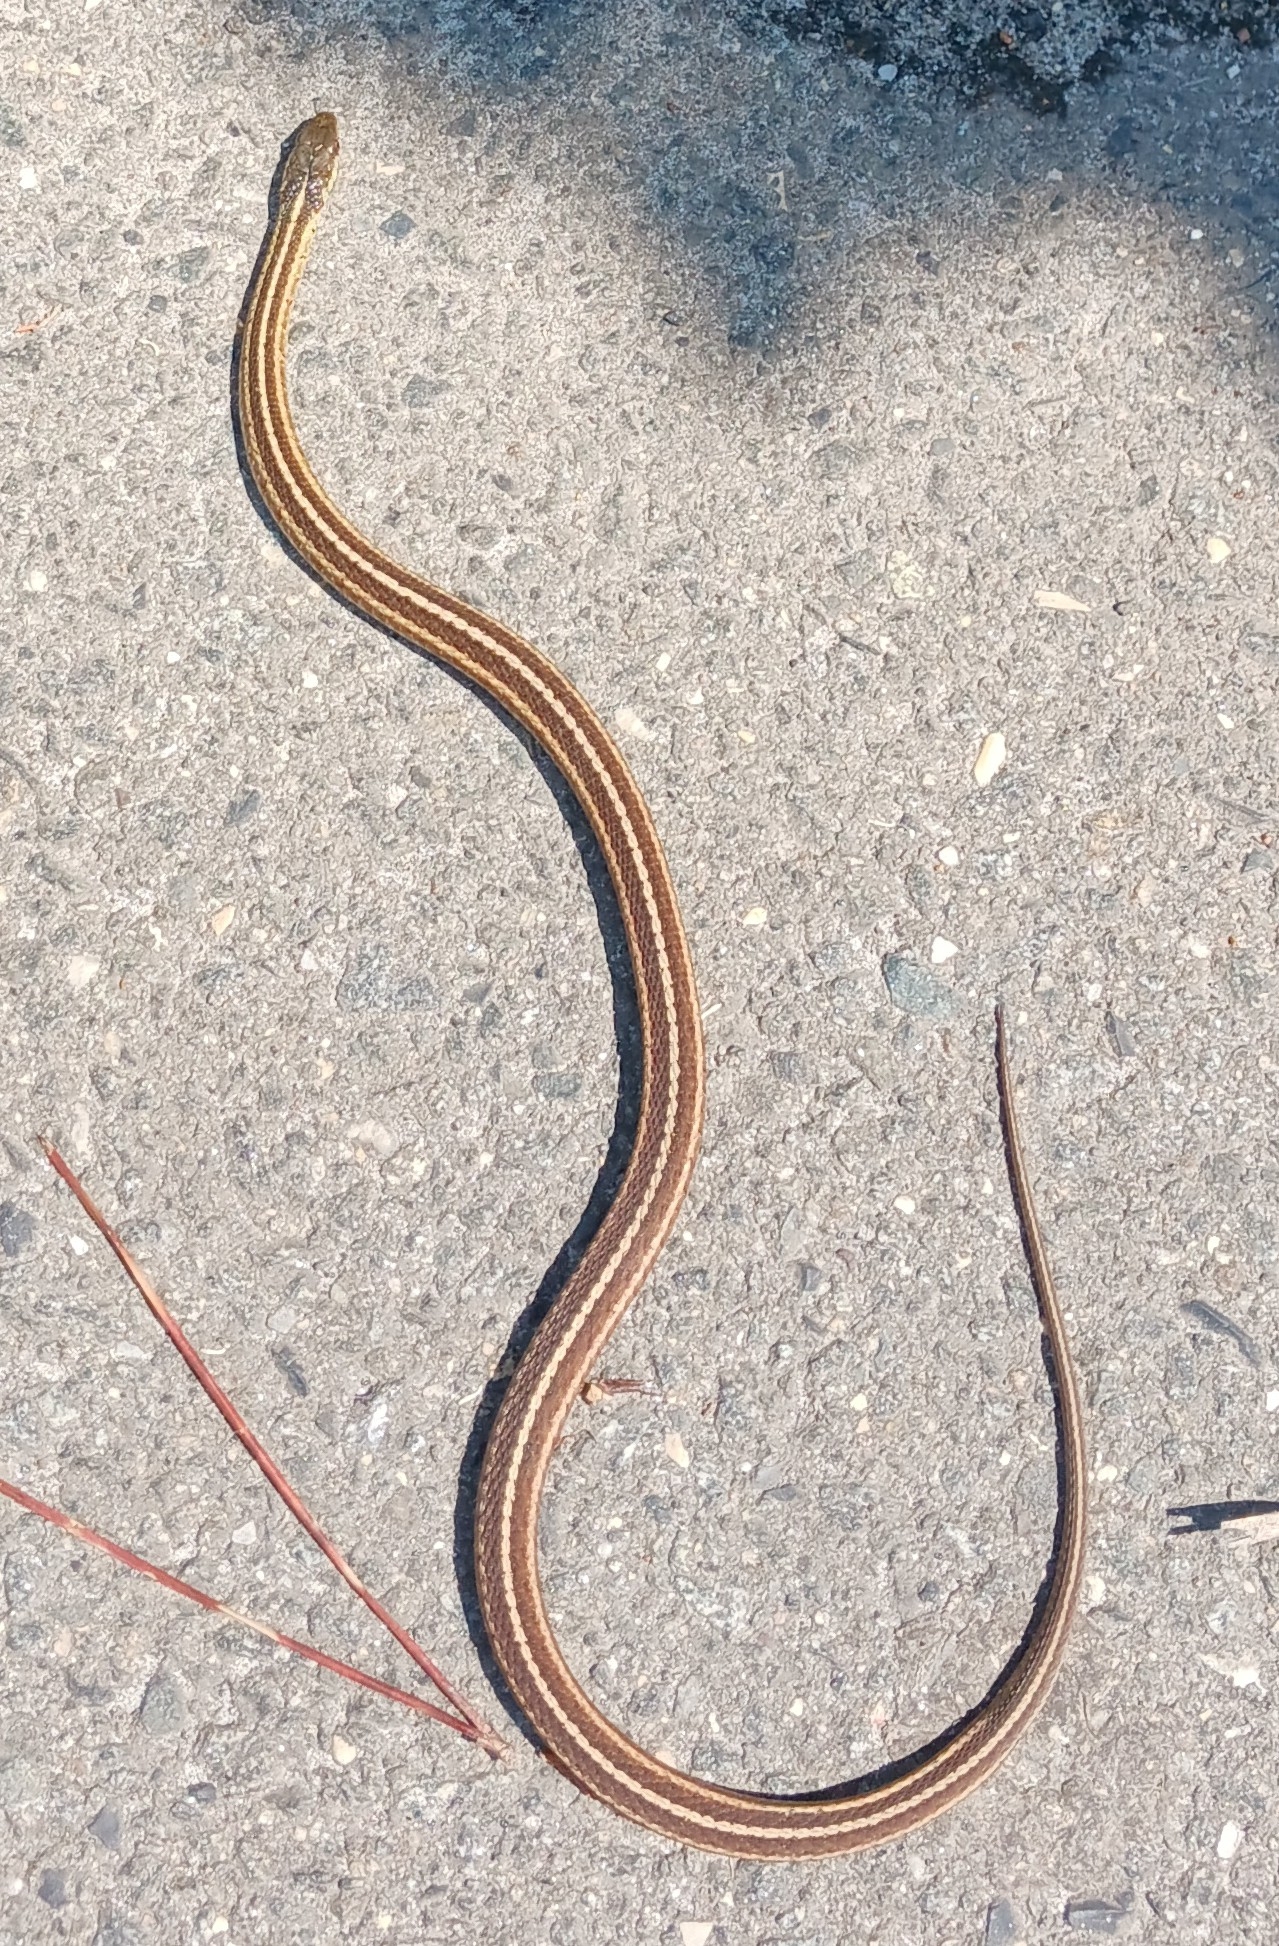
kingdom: Animalia
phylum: Chordata
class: Squamata
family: Colubridae
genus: Thamnophis
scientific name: Thamnophis saurita
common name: Eastern ribbonsnake
